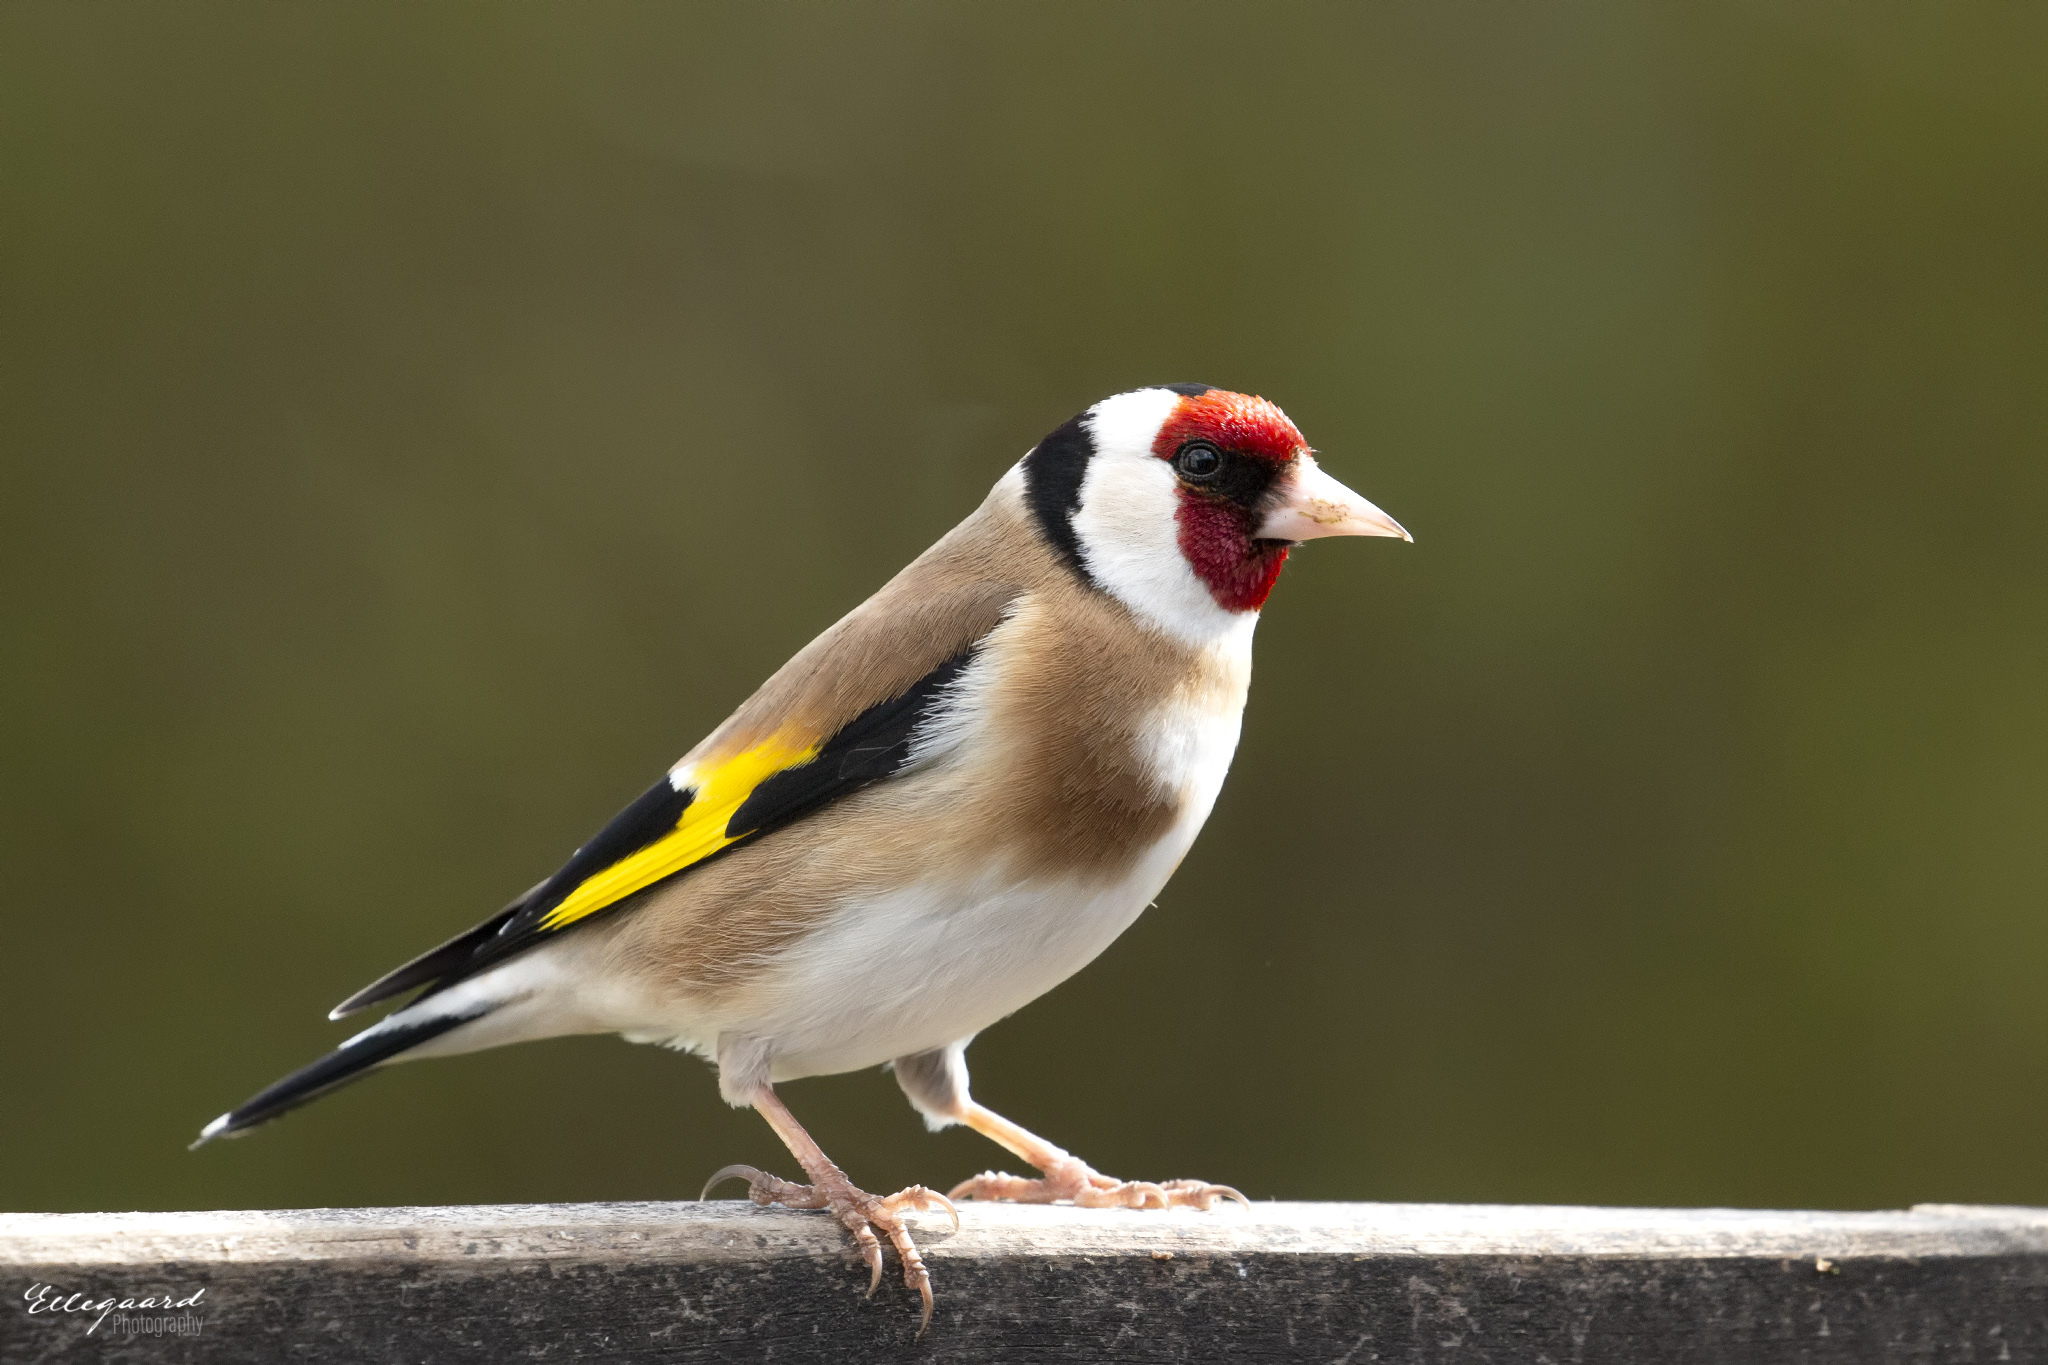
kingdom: Animalia
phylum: Chordata
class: Aves
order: Passeriformes
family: Fringillidae
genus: Carduelis
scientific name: Carduelis carduelis
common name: European goldfinch
